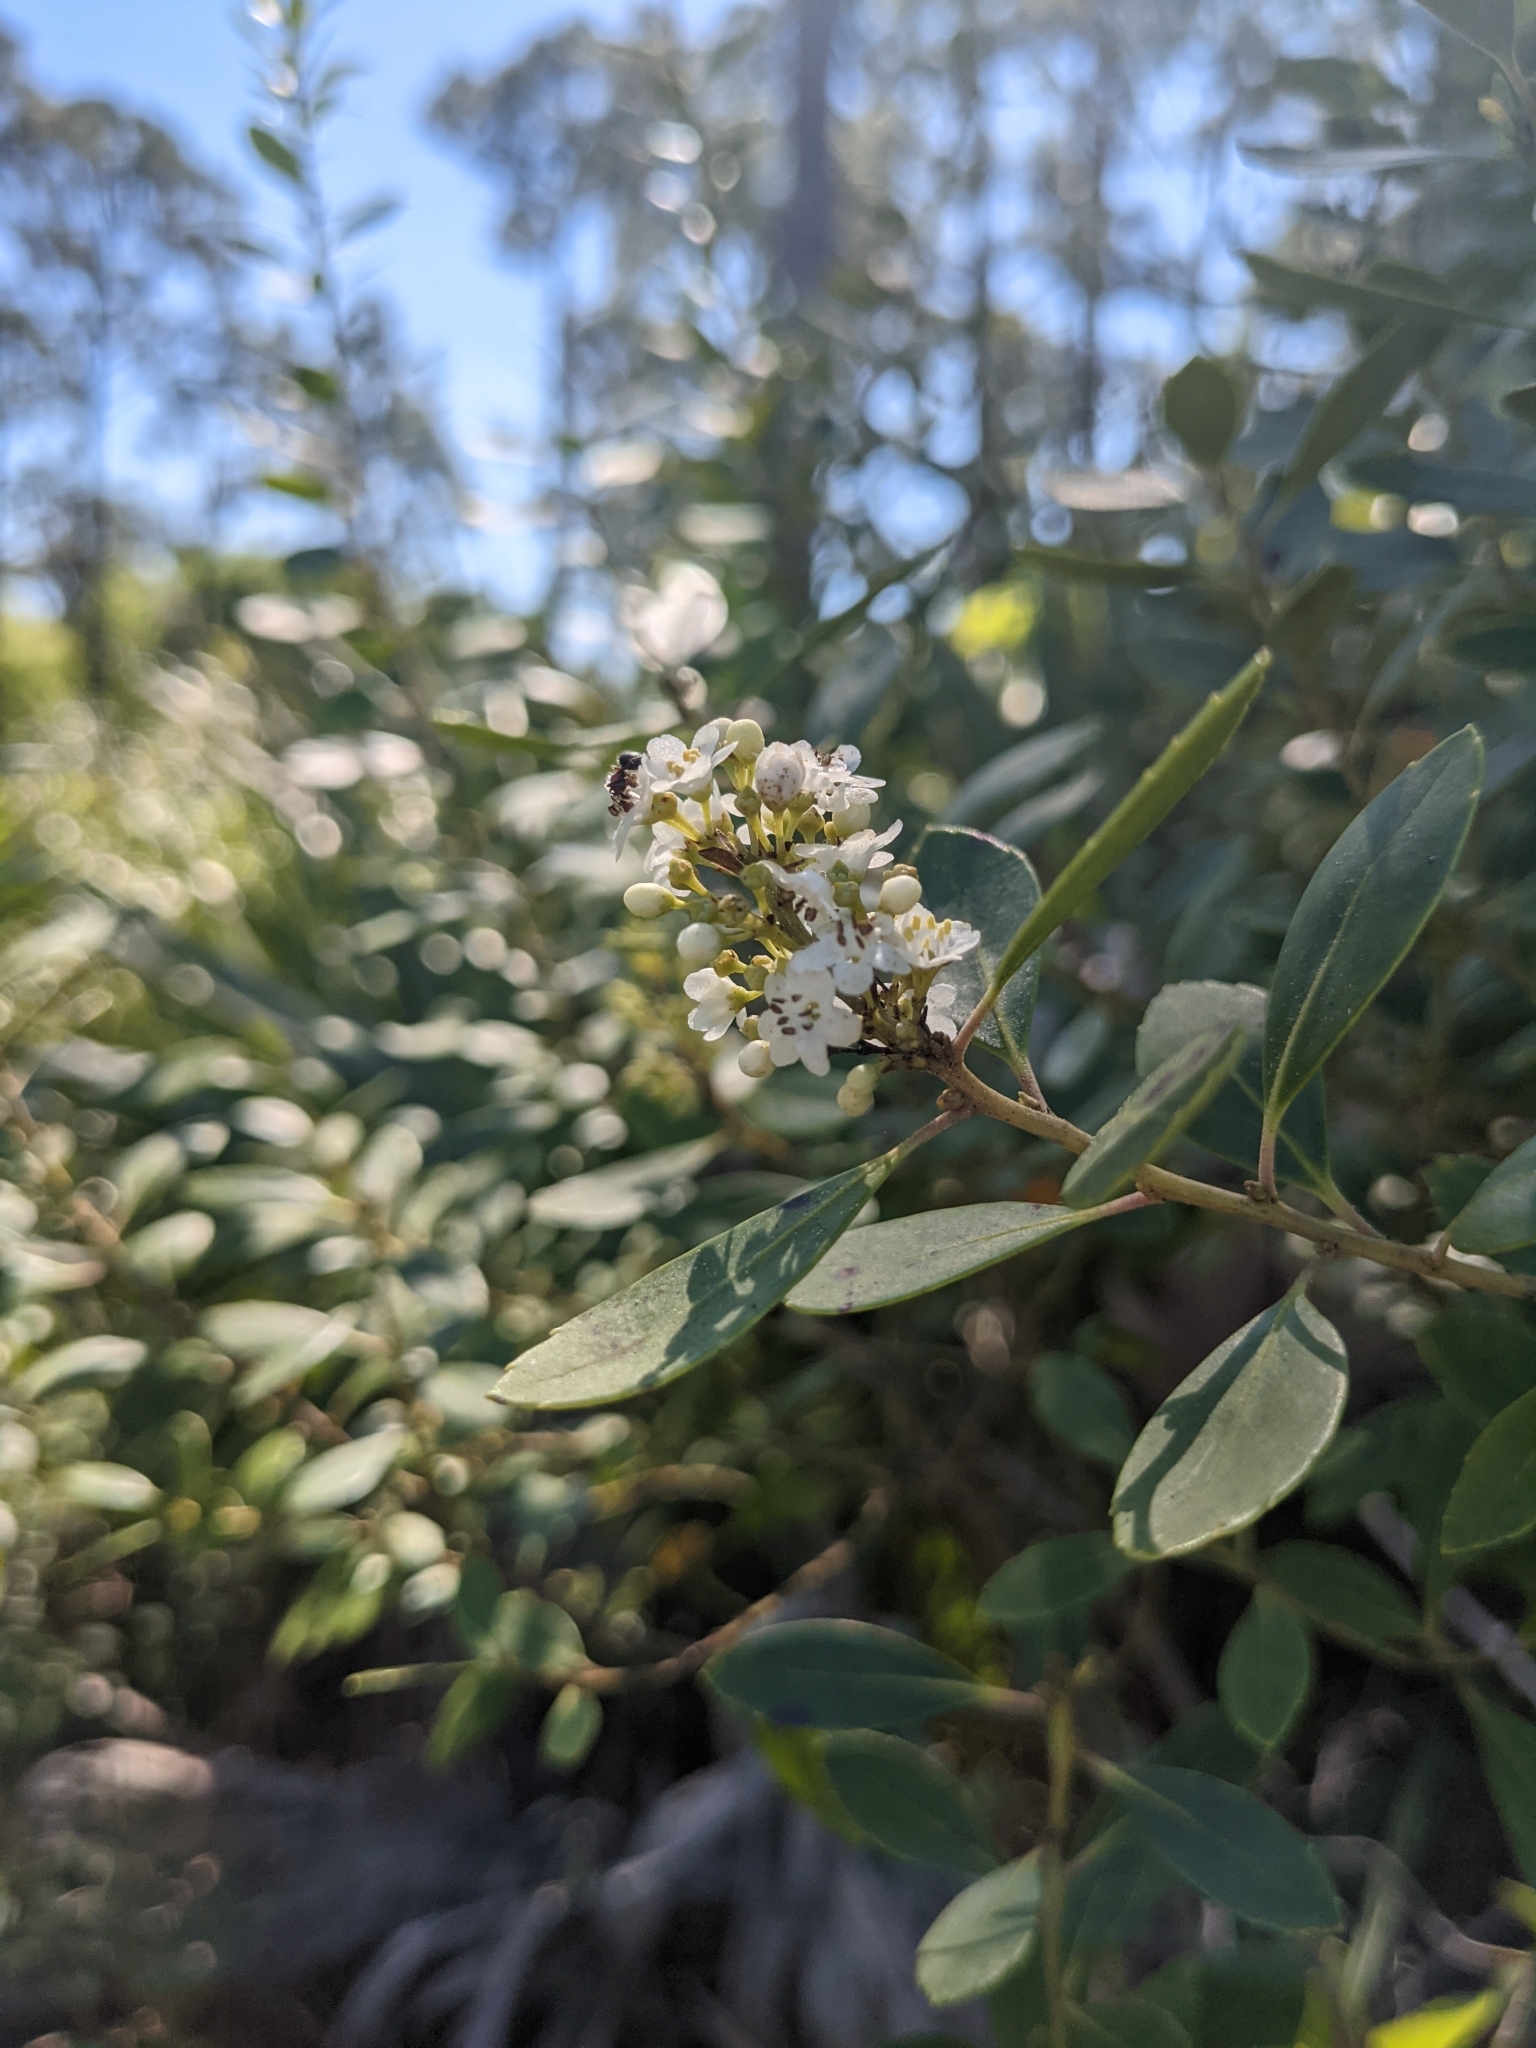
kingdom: Plantae
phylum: Tracheophyta
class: Magnoliopsida
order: Aquifoliales
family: Aquifoliaceae
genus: Ilex
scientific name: Ilex glabra
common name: Bitter gallberry
